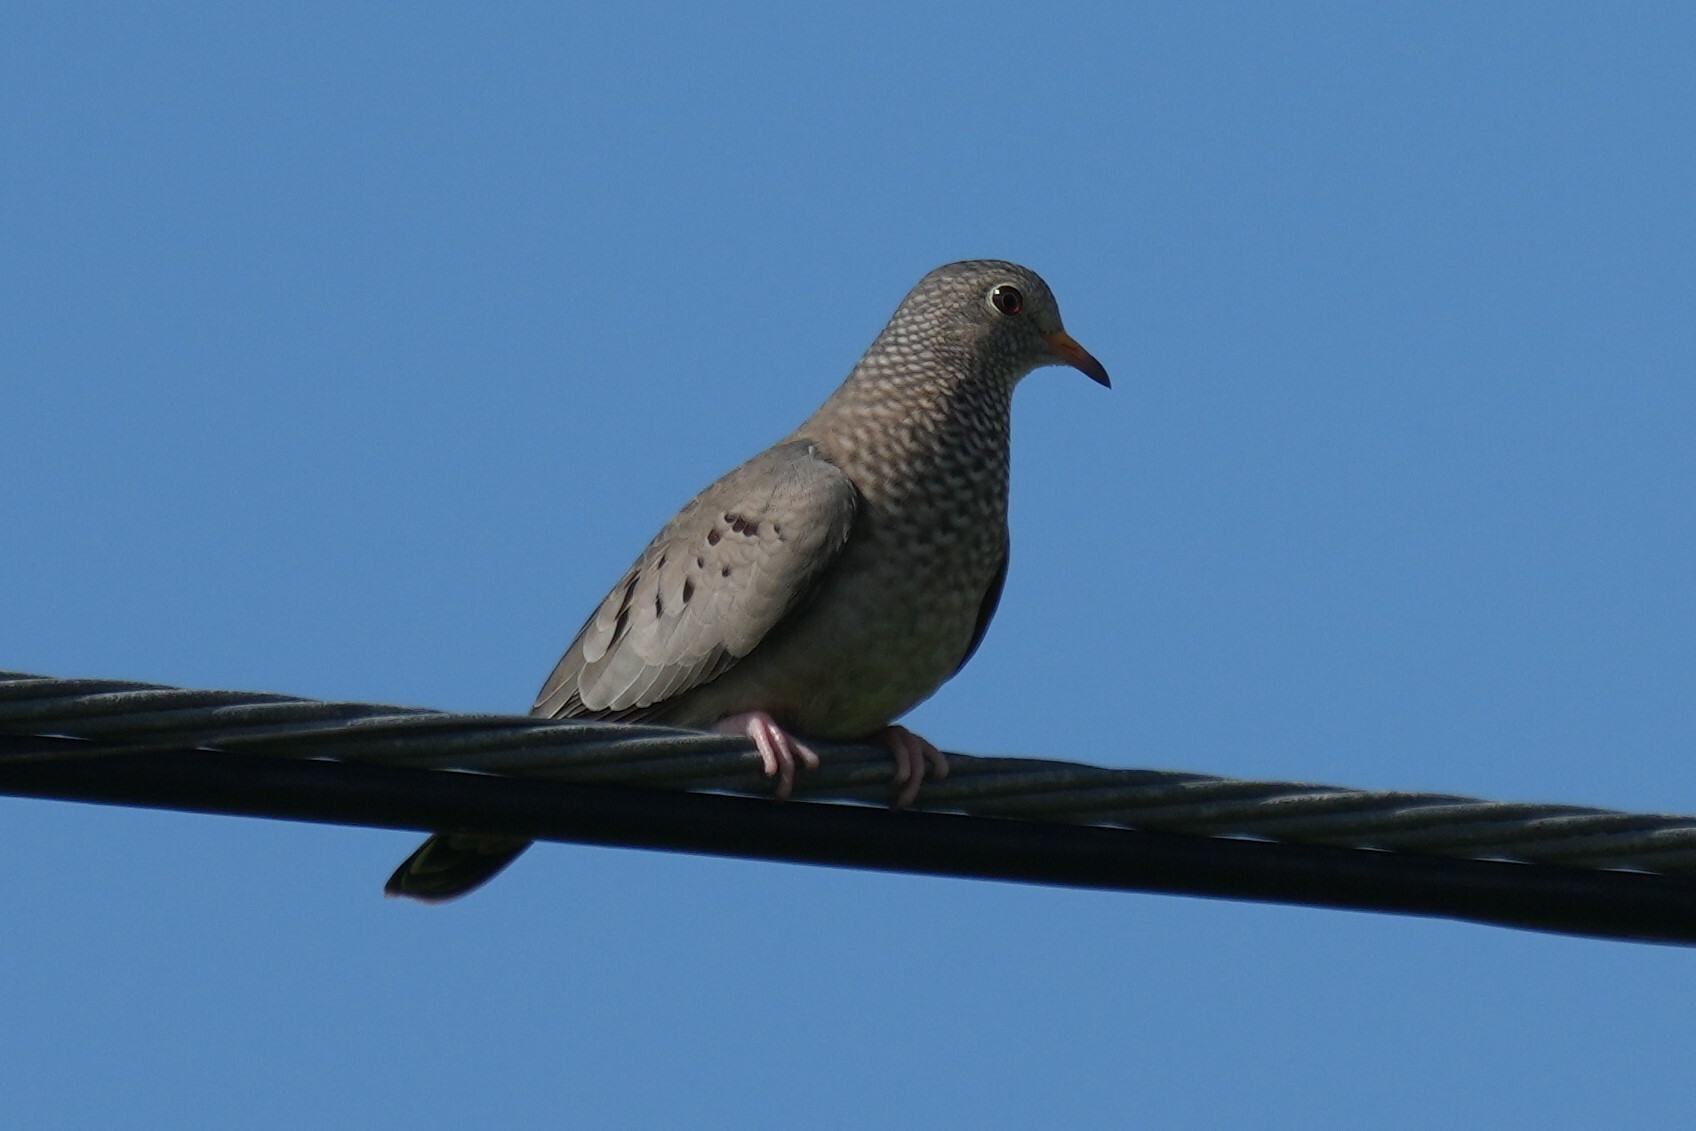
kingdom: Animalia
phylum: Chordata
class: Aves
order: Columbiformes
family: Columbidae
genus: Columbina
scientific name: Columbina passerina
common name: Common ground-dove
